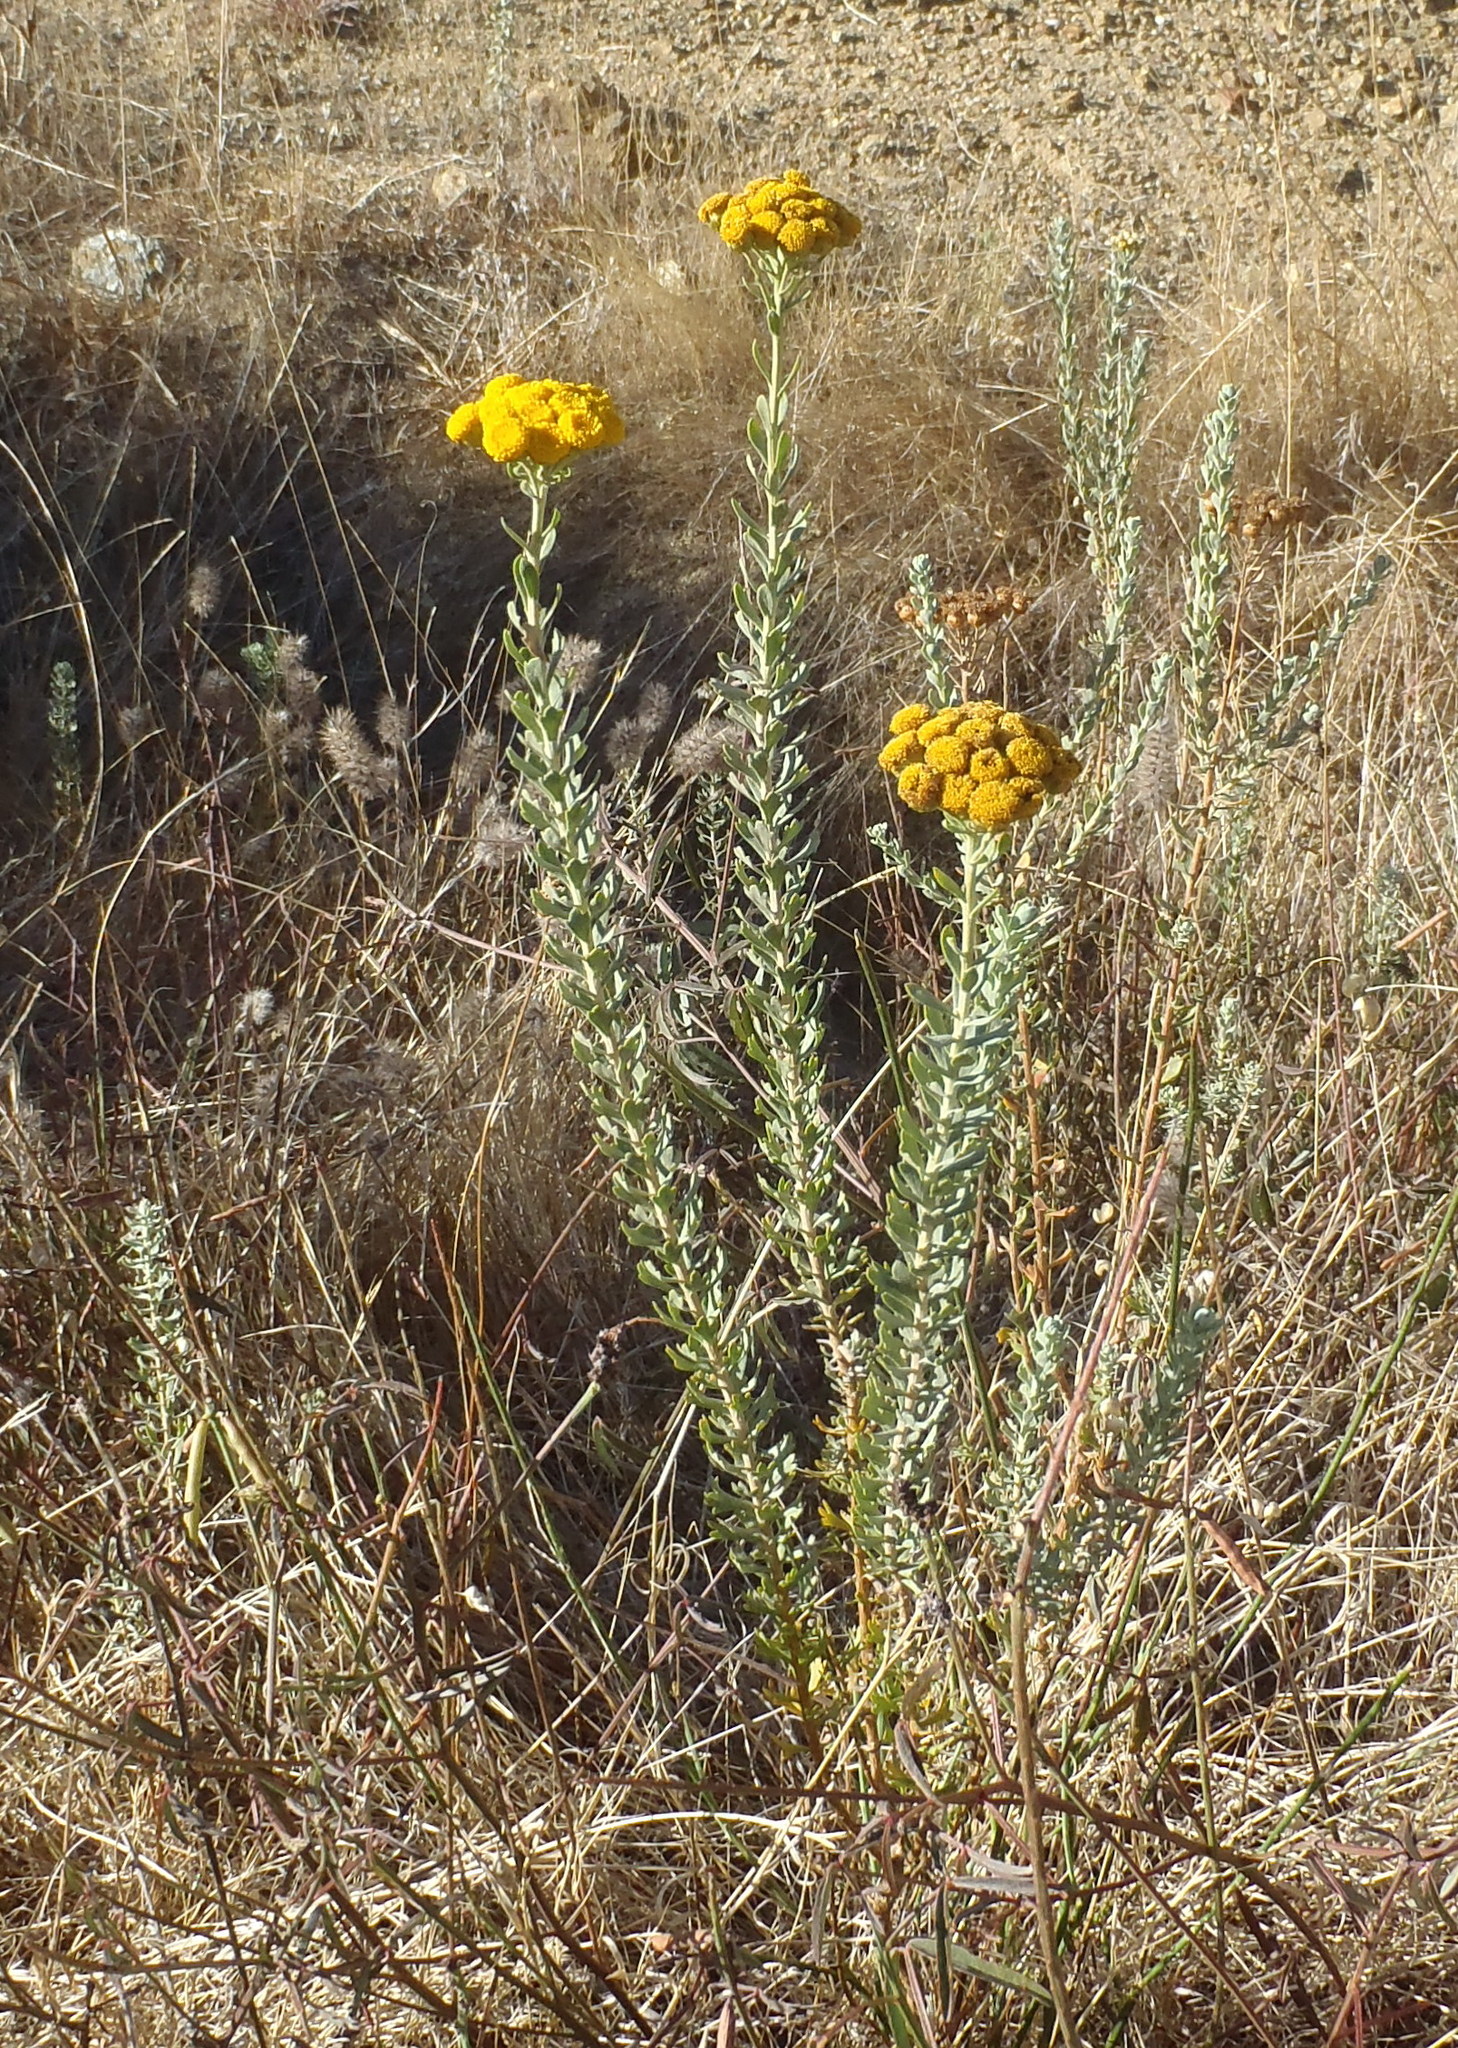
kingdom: Plantae
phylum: Tracheophyta
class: Magnoliopsida
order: Asterales
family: Asteraceae
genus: Athanasia
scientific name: Athanasia trifurcata
